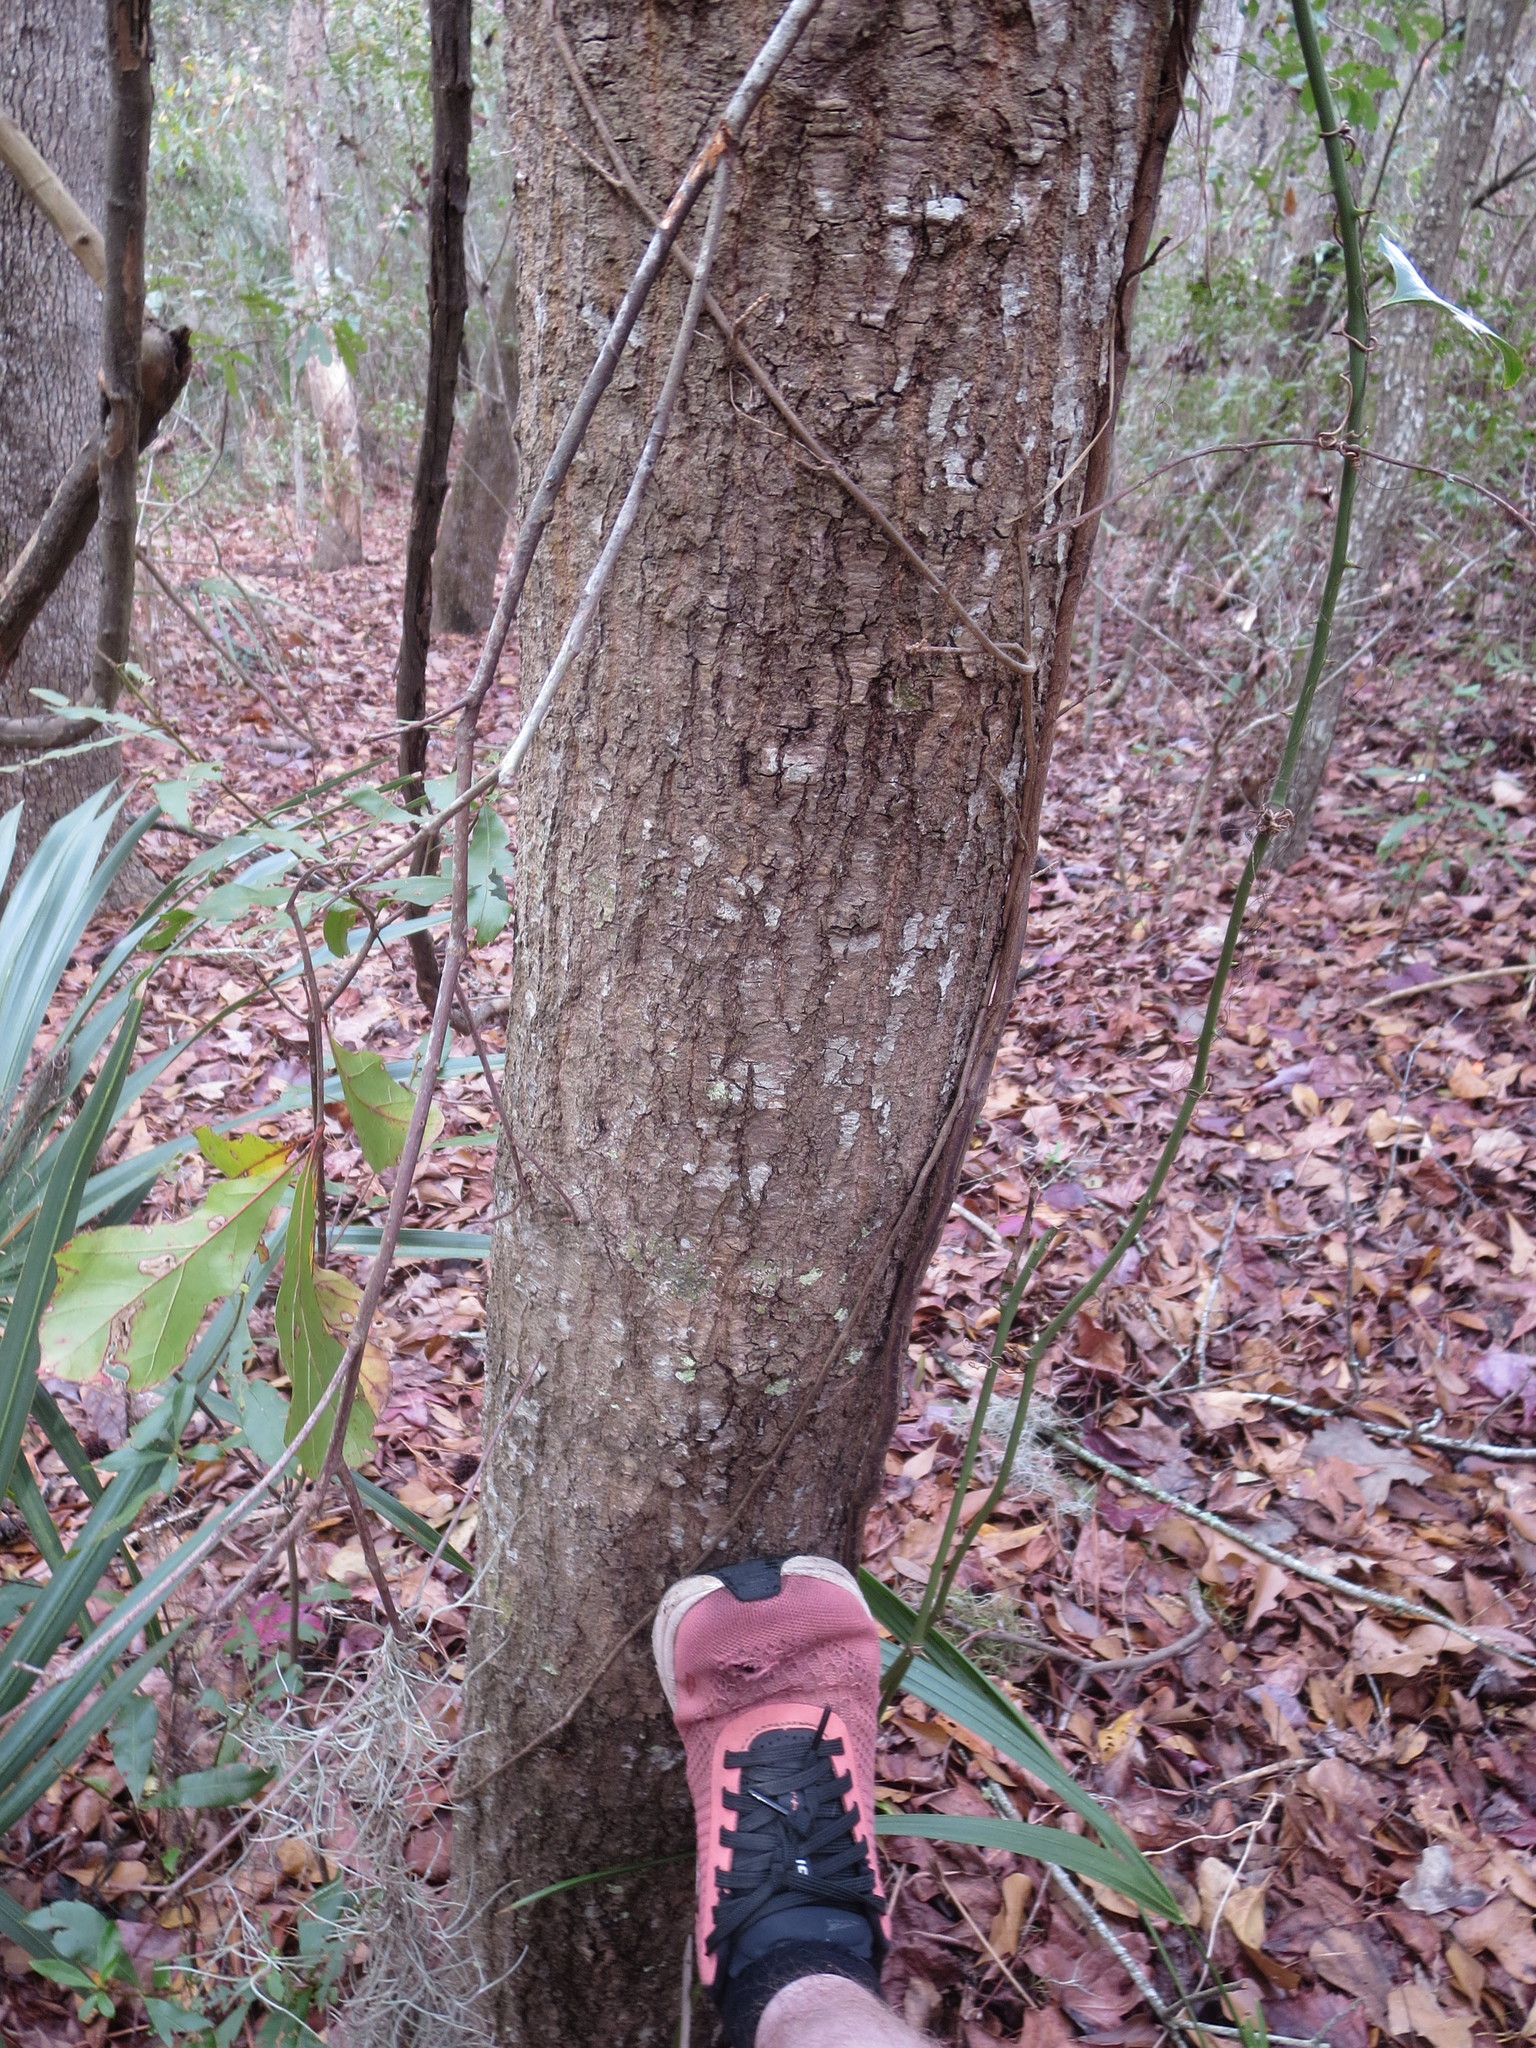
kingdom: Plantae
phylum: Tracheophyta
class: Magnoliopsida
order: Fagales
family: Fagaceae
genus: Quercus
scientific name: Quercus nigra
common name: Water oak
